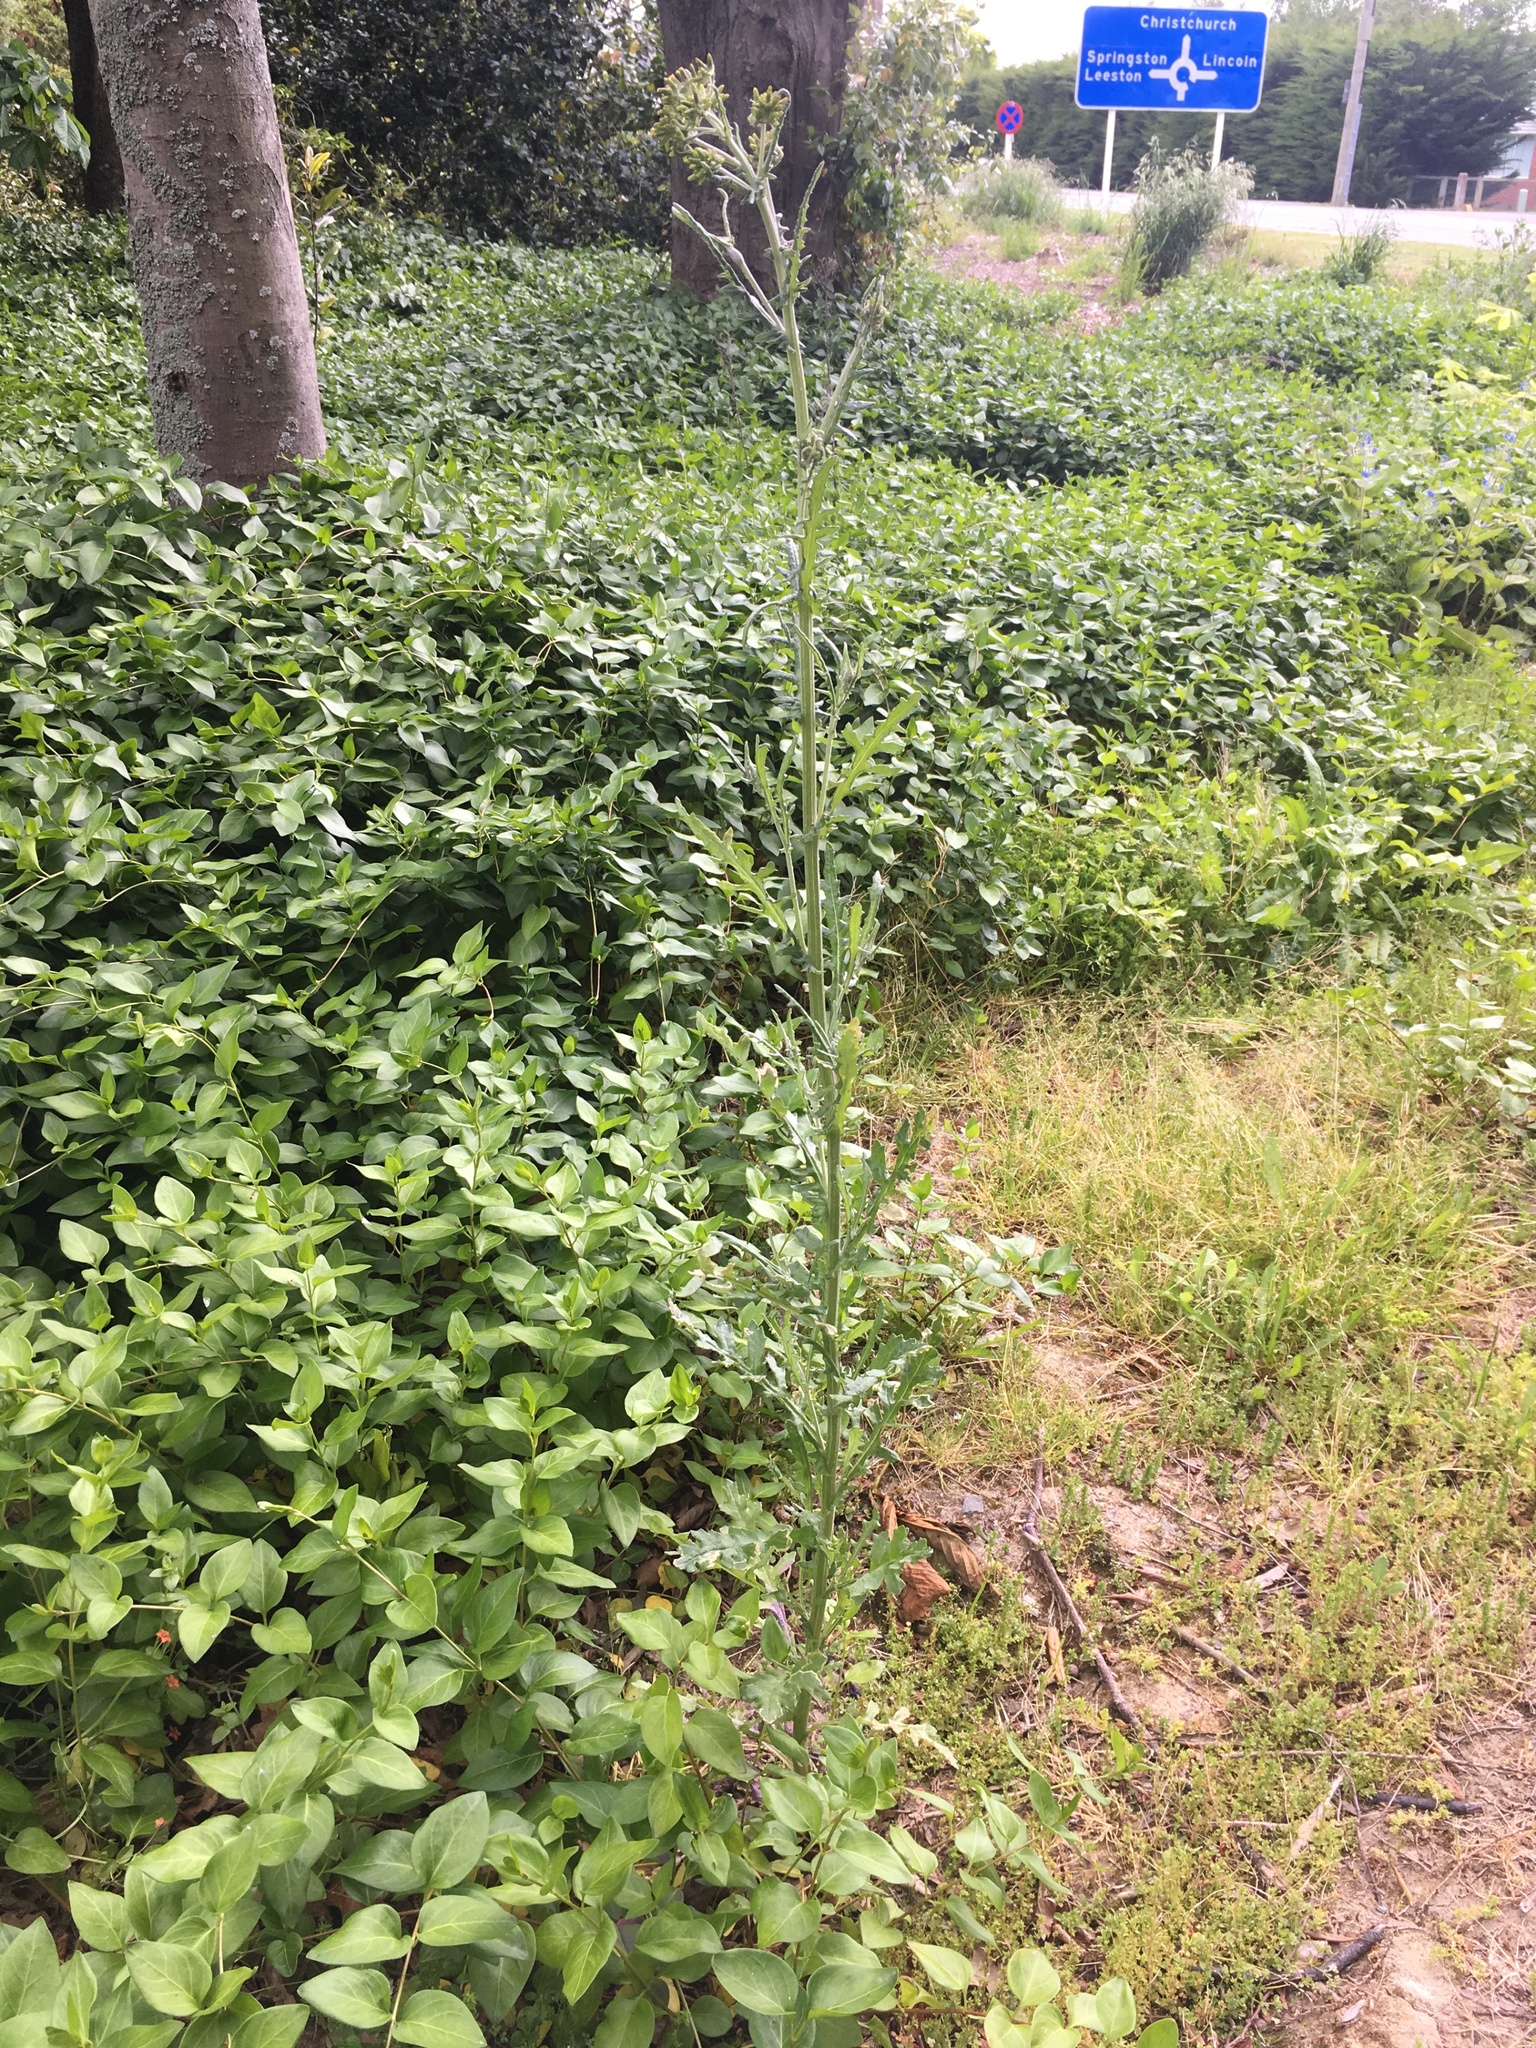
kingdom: Plantae
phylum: Tracheophyta
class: Magnoliopsida
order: Asterales
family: Asteraceae
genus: Senecio
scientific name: Senecio glomeratus
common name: Cutleaf burnweed
